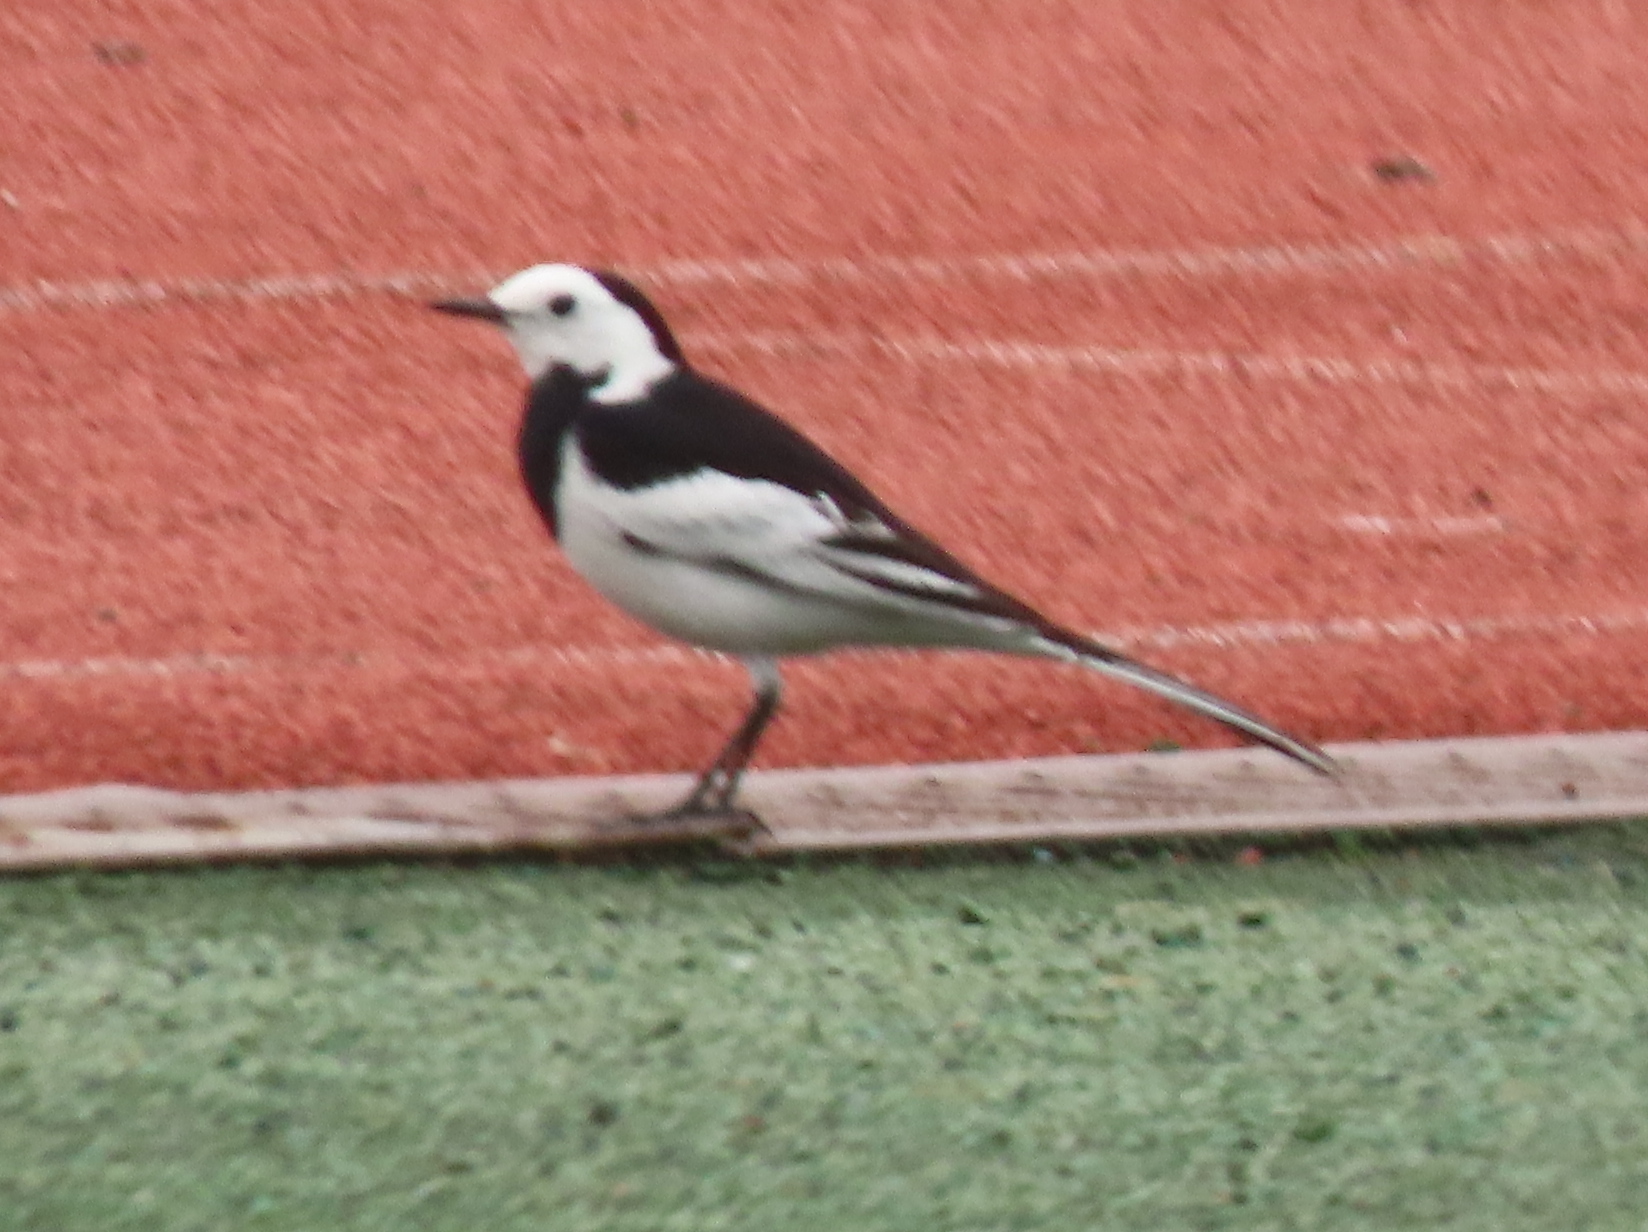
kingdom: Animalia
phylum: Chordata
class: Aves
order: Passeriformes
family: Motacillidae
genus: Motacilla
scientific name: Motacilla alba
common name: White wagtail
